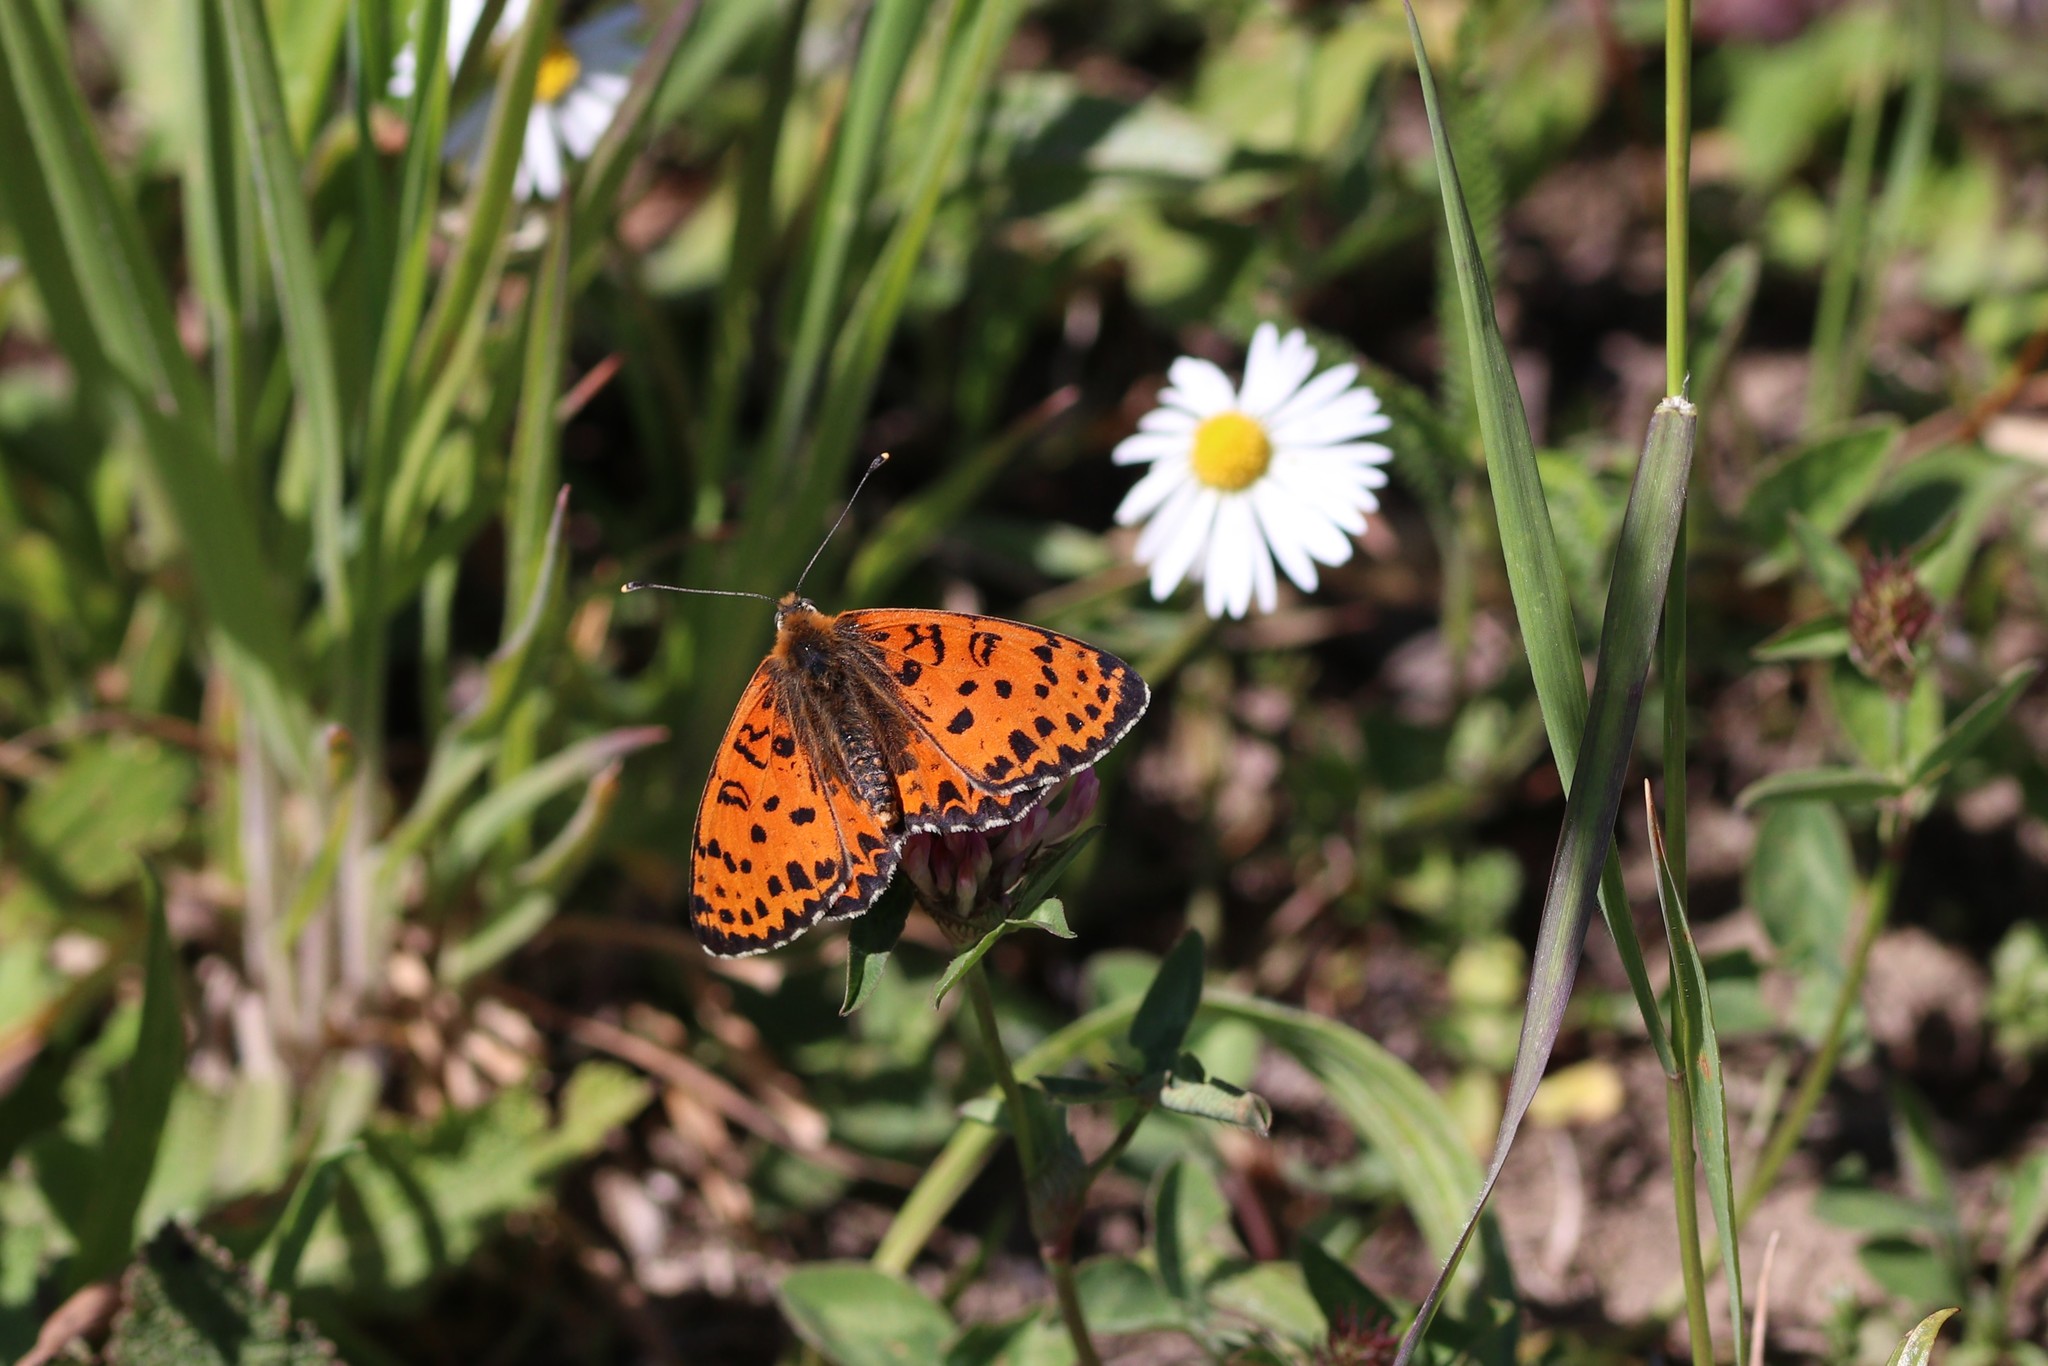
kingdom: Animalia
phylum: Arthropoda
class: Insecta
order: Lepidoptera
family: Nymphalidae
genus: Melitaea
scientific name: Melitaea didyma
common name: Spotted fritillary
